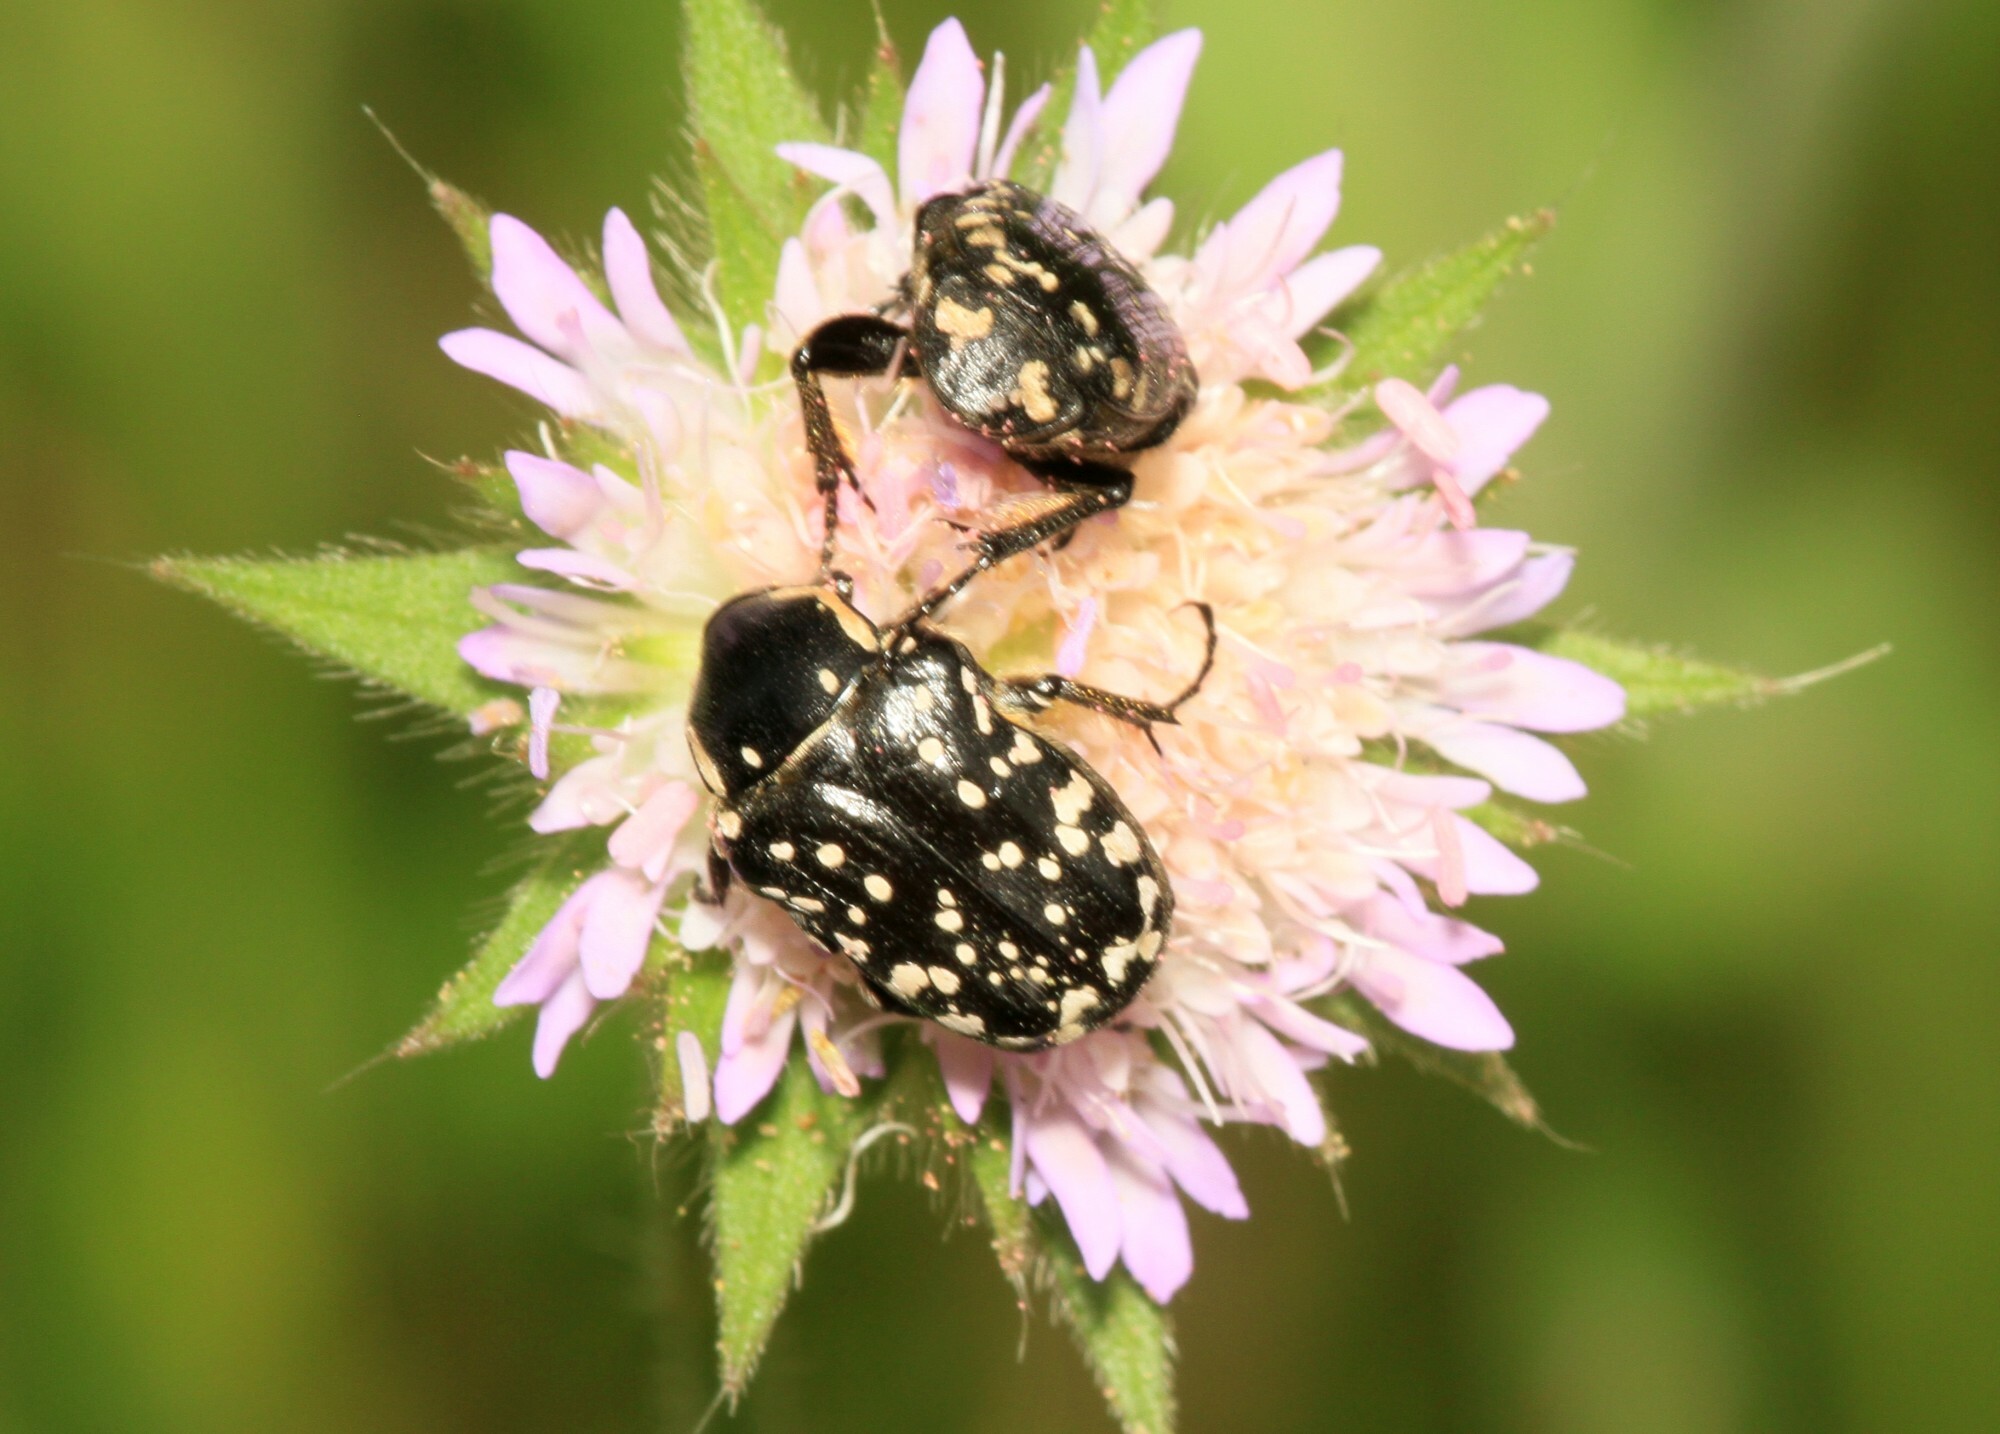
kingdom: Animalia
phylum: Arthropoda
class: Insecta
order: Coleoptera
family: Scarabaeidae
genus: Oxythyrea
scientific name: Oxythyrea cinctella
